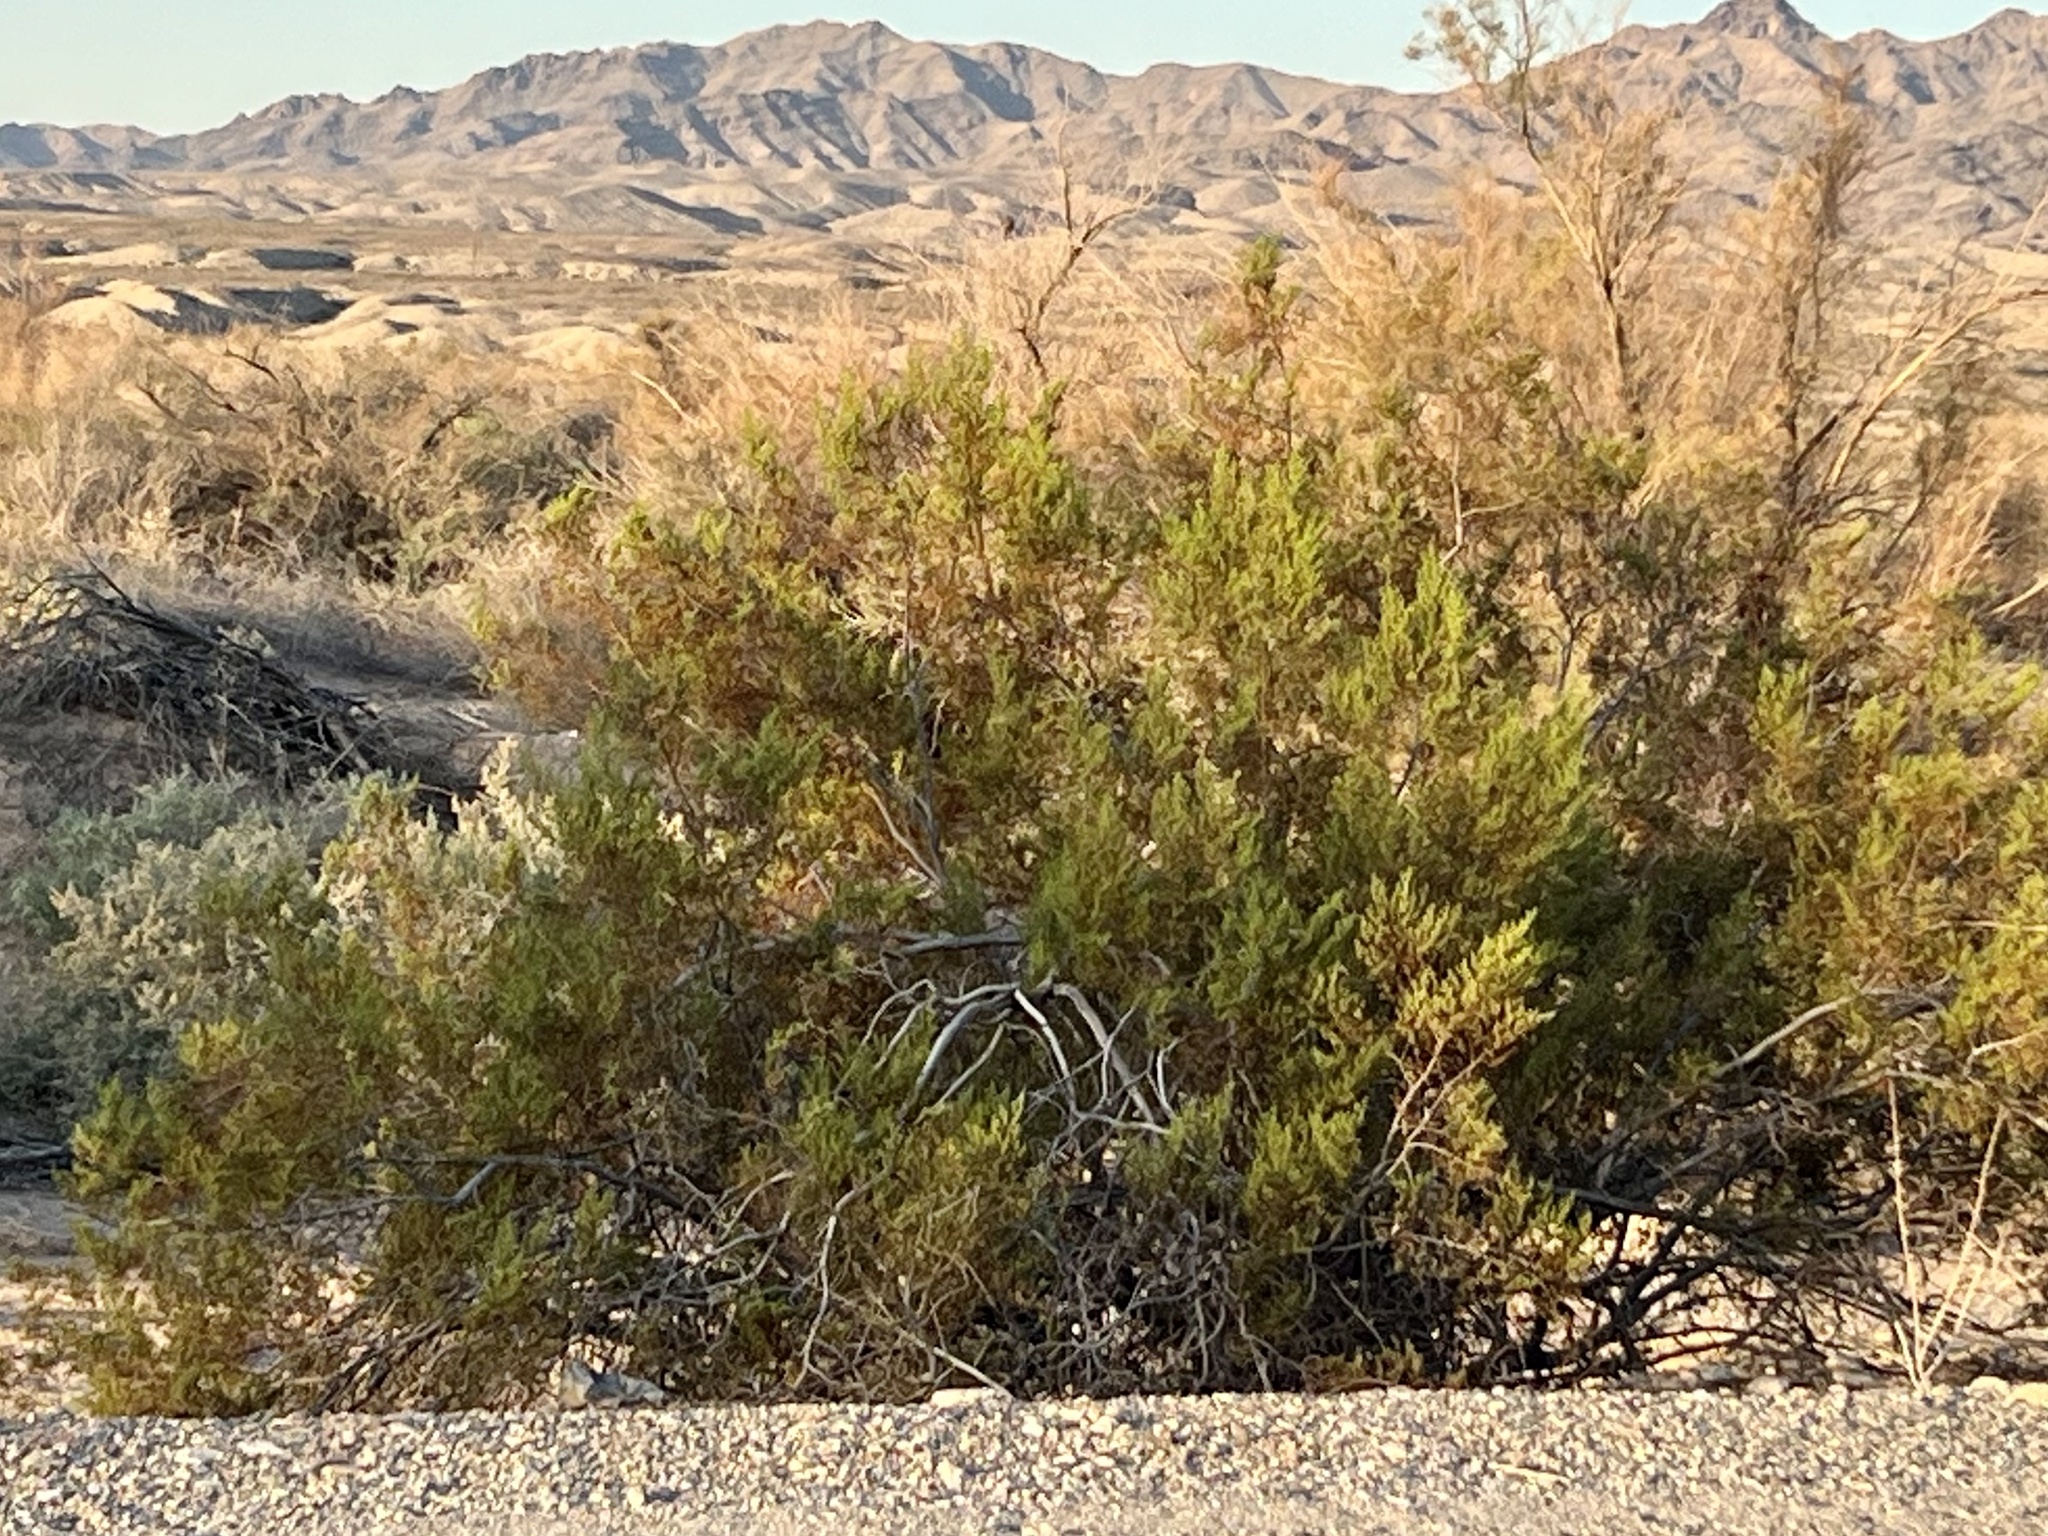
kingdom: Plantae
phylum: Tracheophyta
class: Magnoliopsida
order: Zygophyllales
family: Zygophyllaceae
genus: Larrea
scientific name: Larrea tridentata
